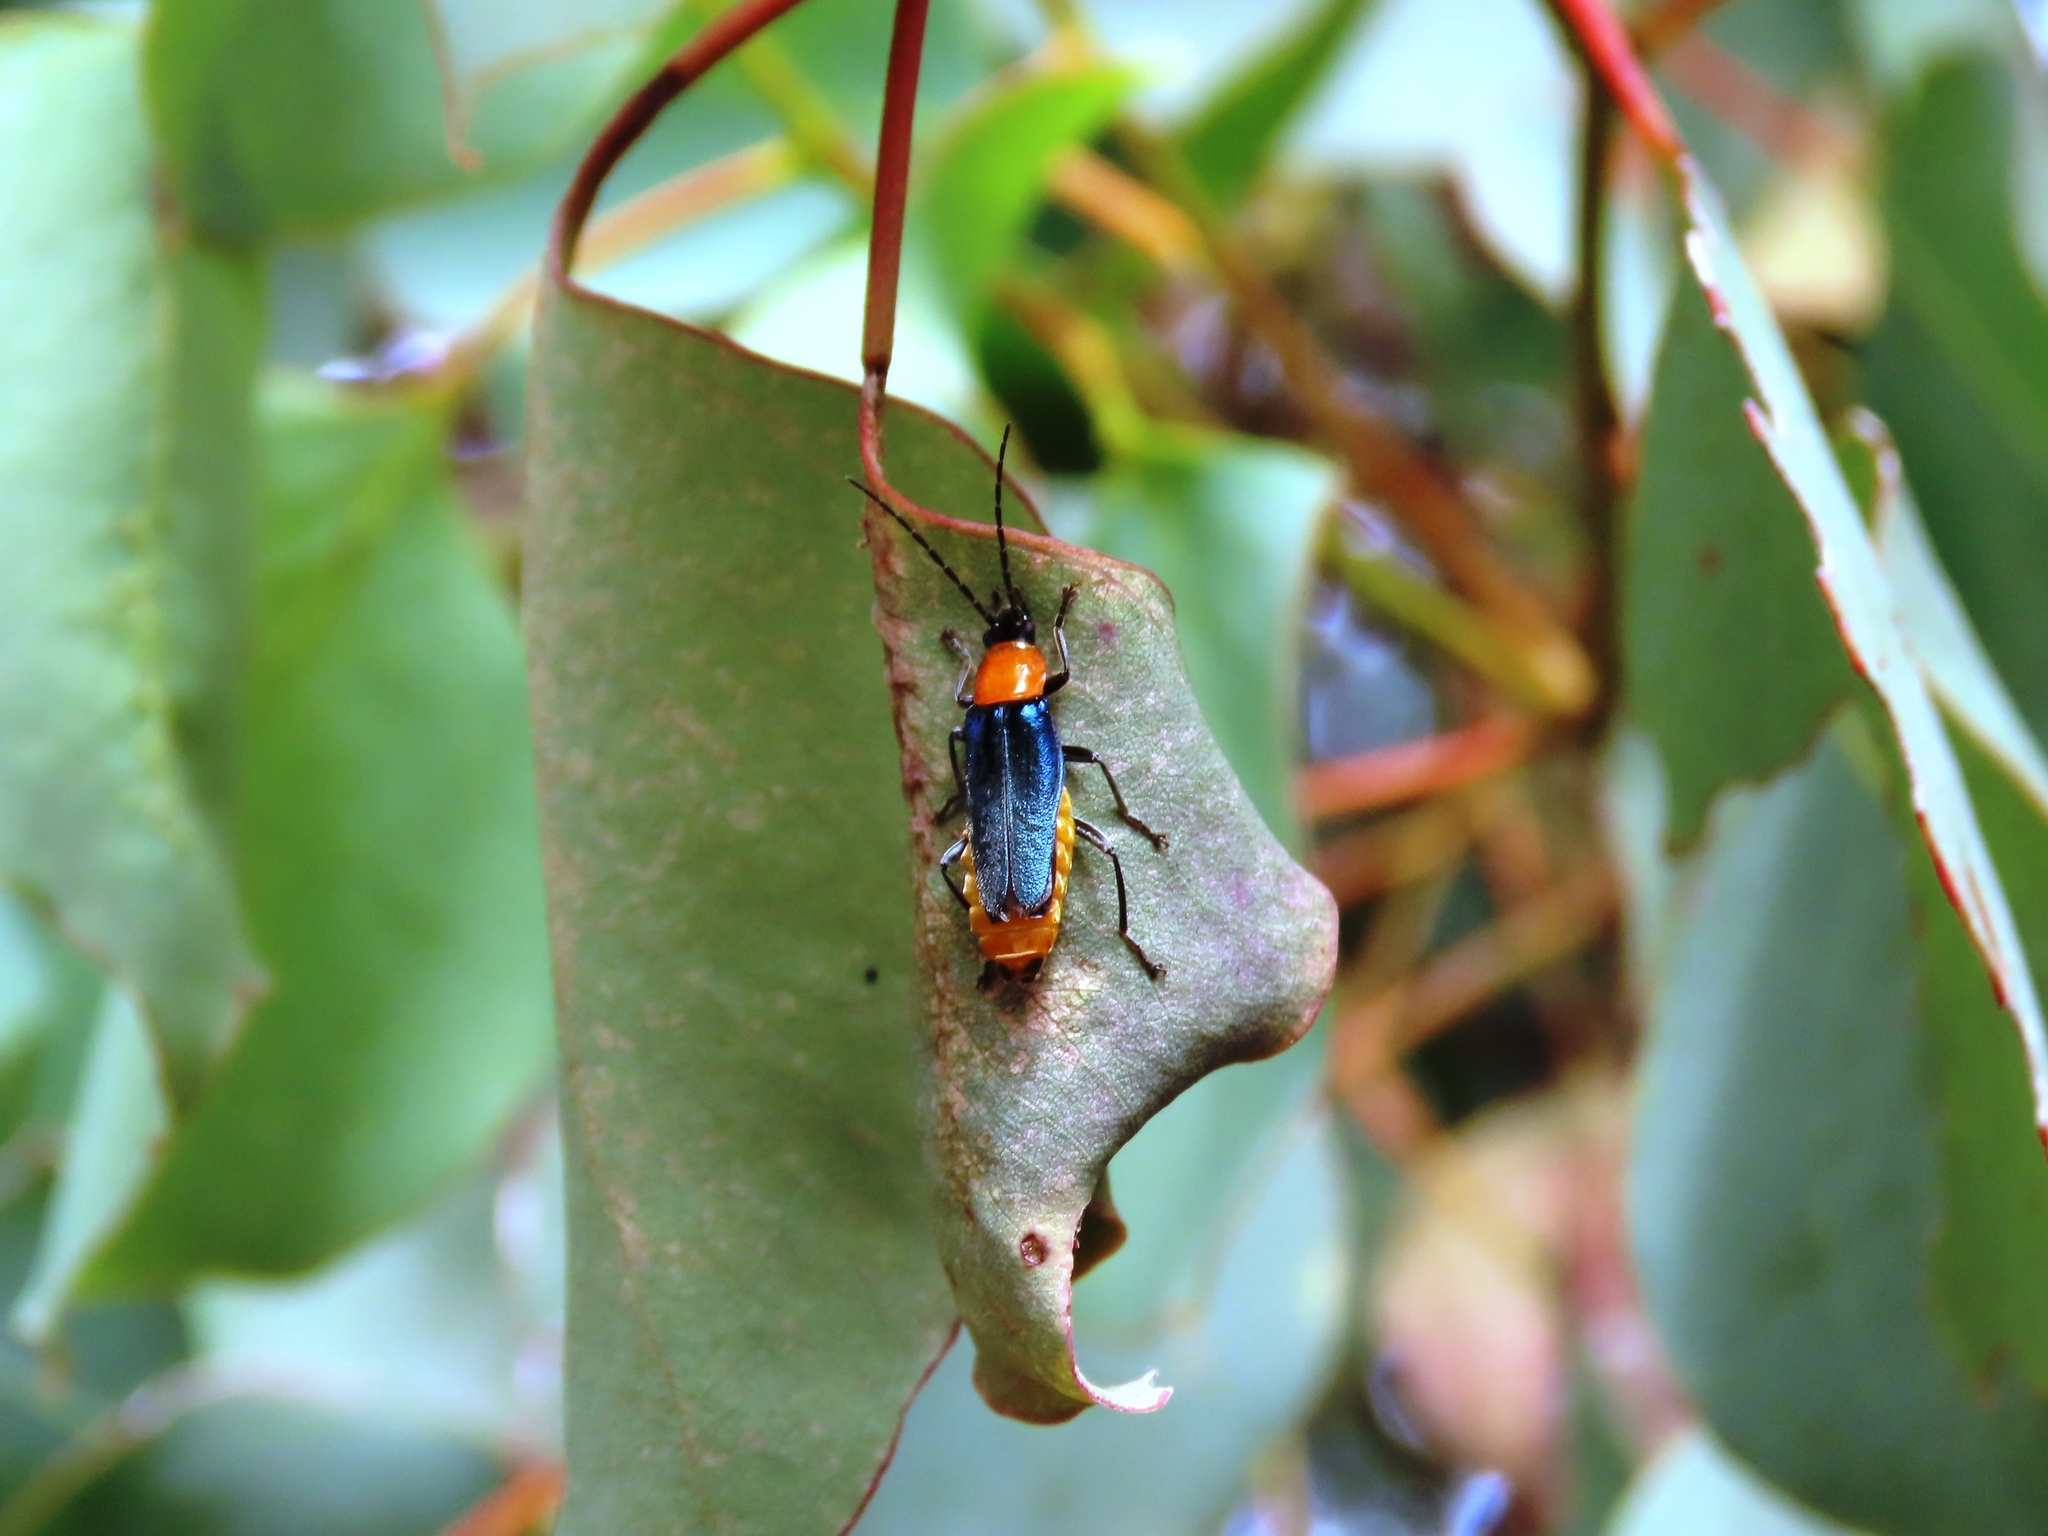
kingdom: Animalia
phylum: Arthropoda
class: Insecta
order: Coleoptera
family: Cantharidae
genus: Chauliognathus
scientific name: Chauliognathus
